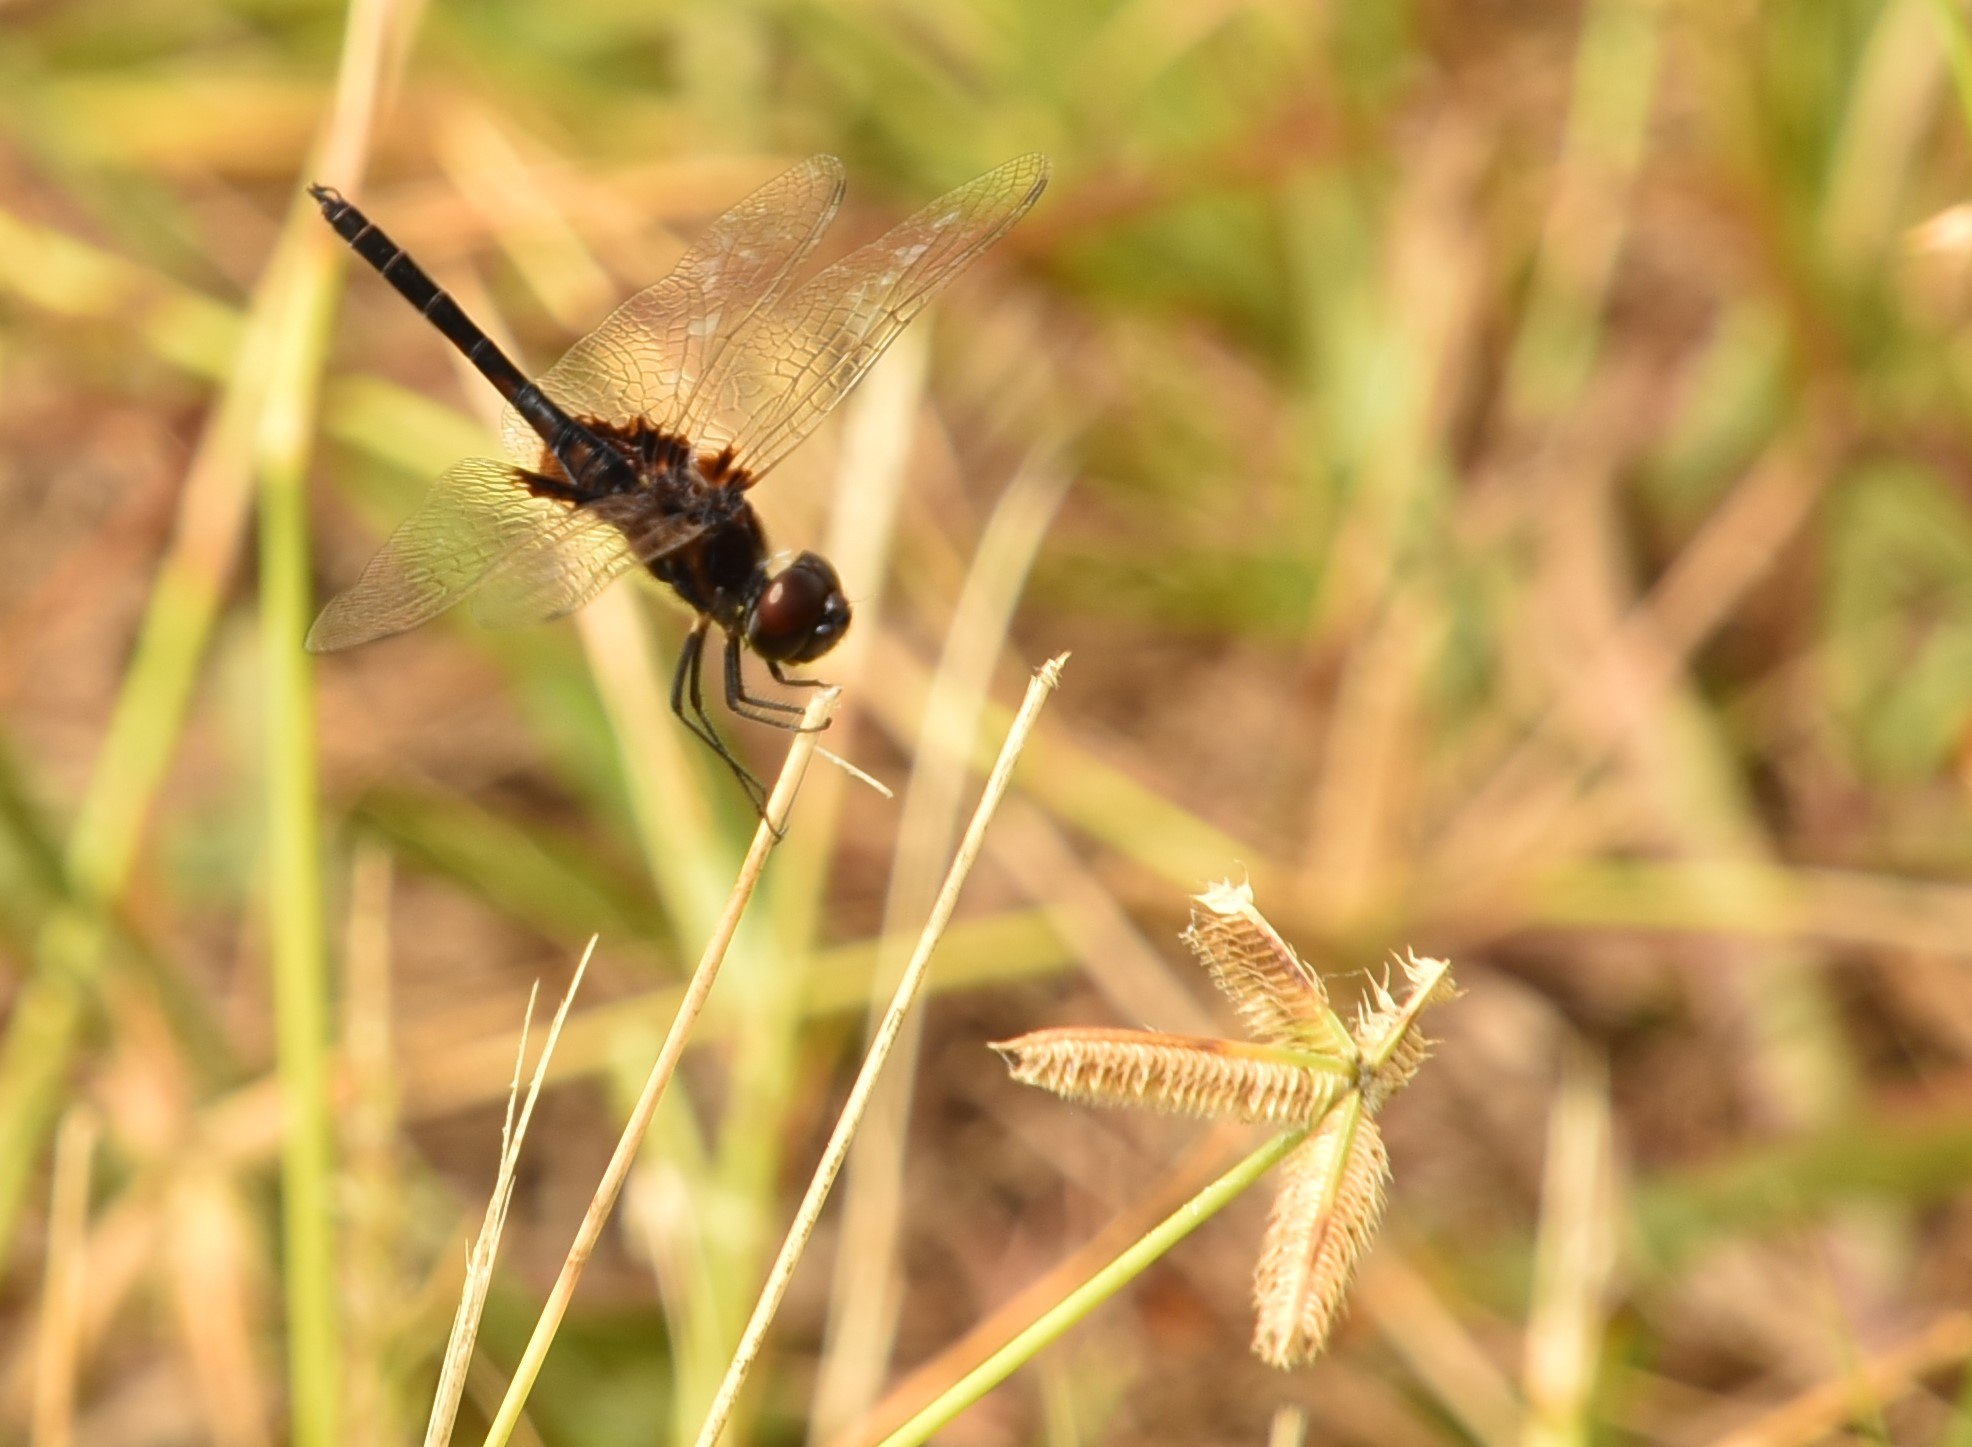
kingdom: Animalia
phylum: Arthropoda
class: Insecta
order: Odonata
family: Libellulidae
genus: Macrodiplax
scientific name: Macrodiplax balteata
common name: Marl pennant
